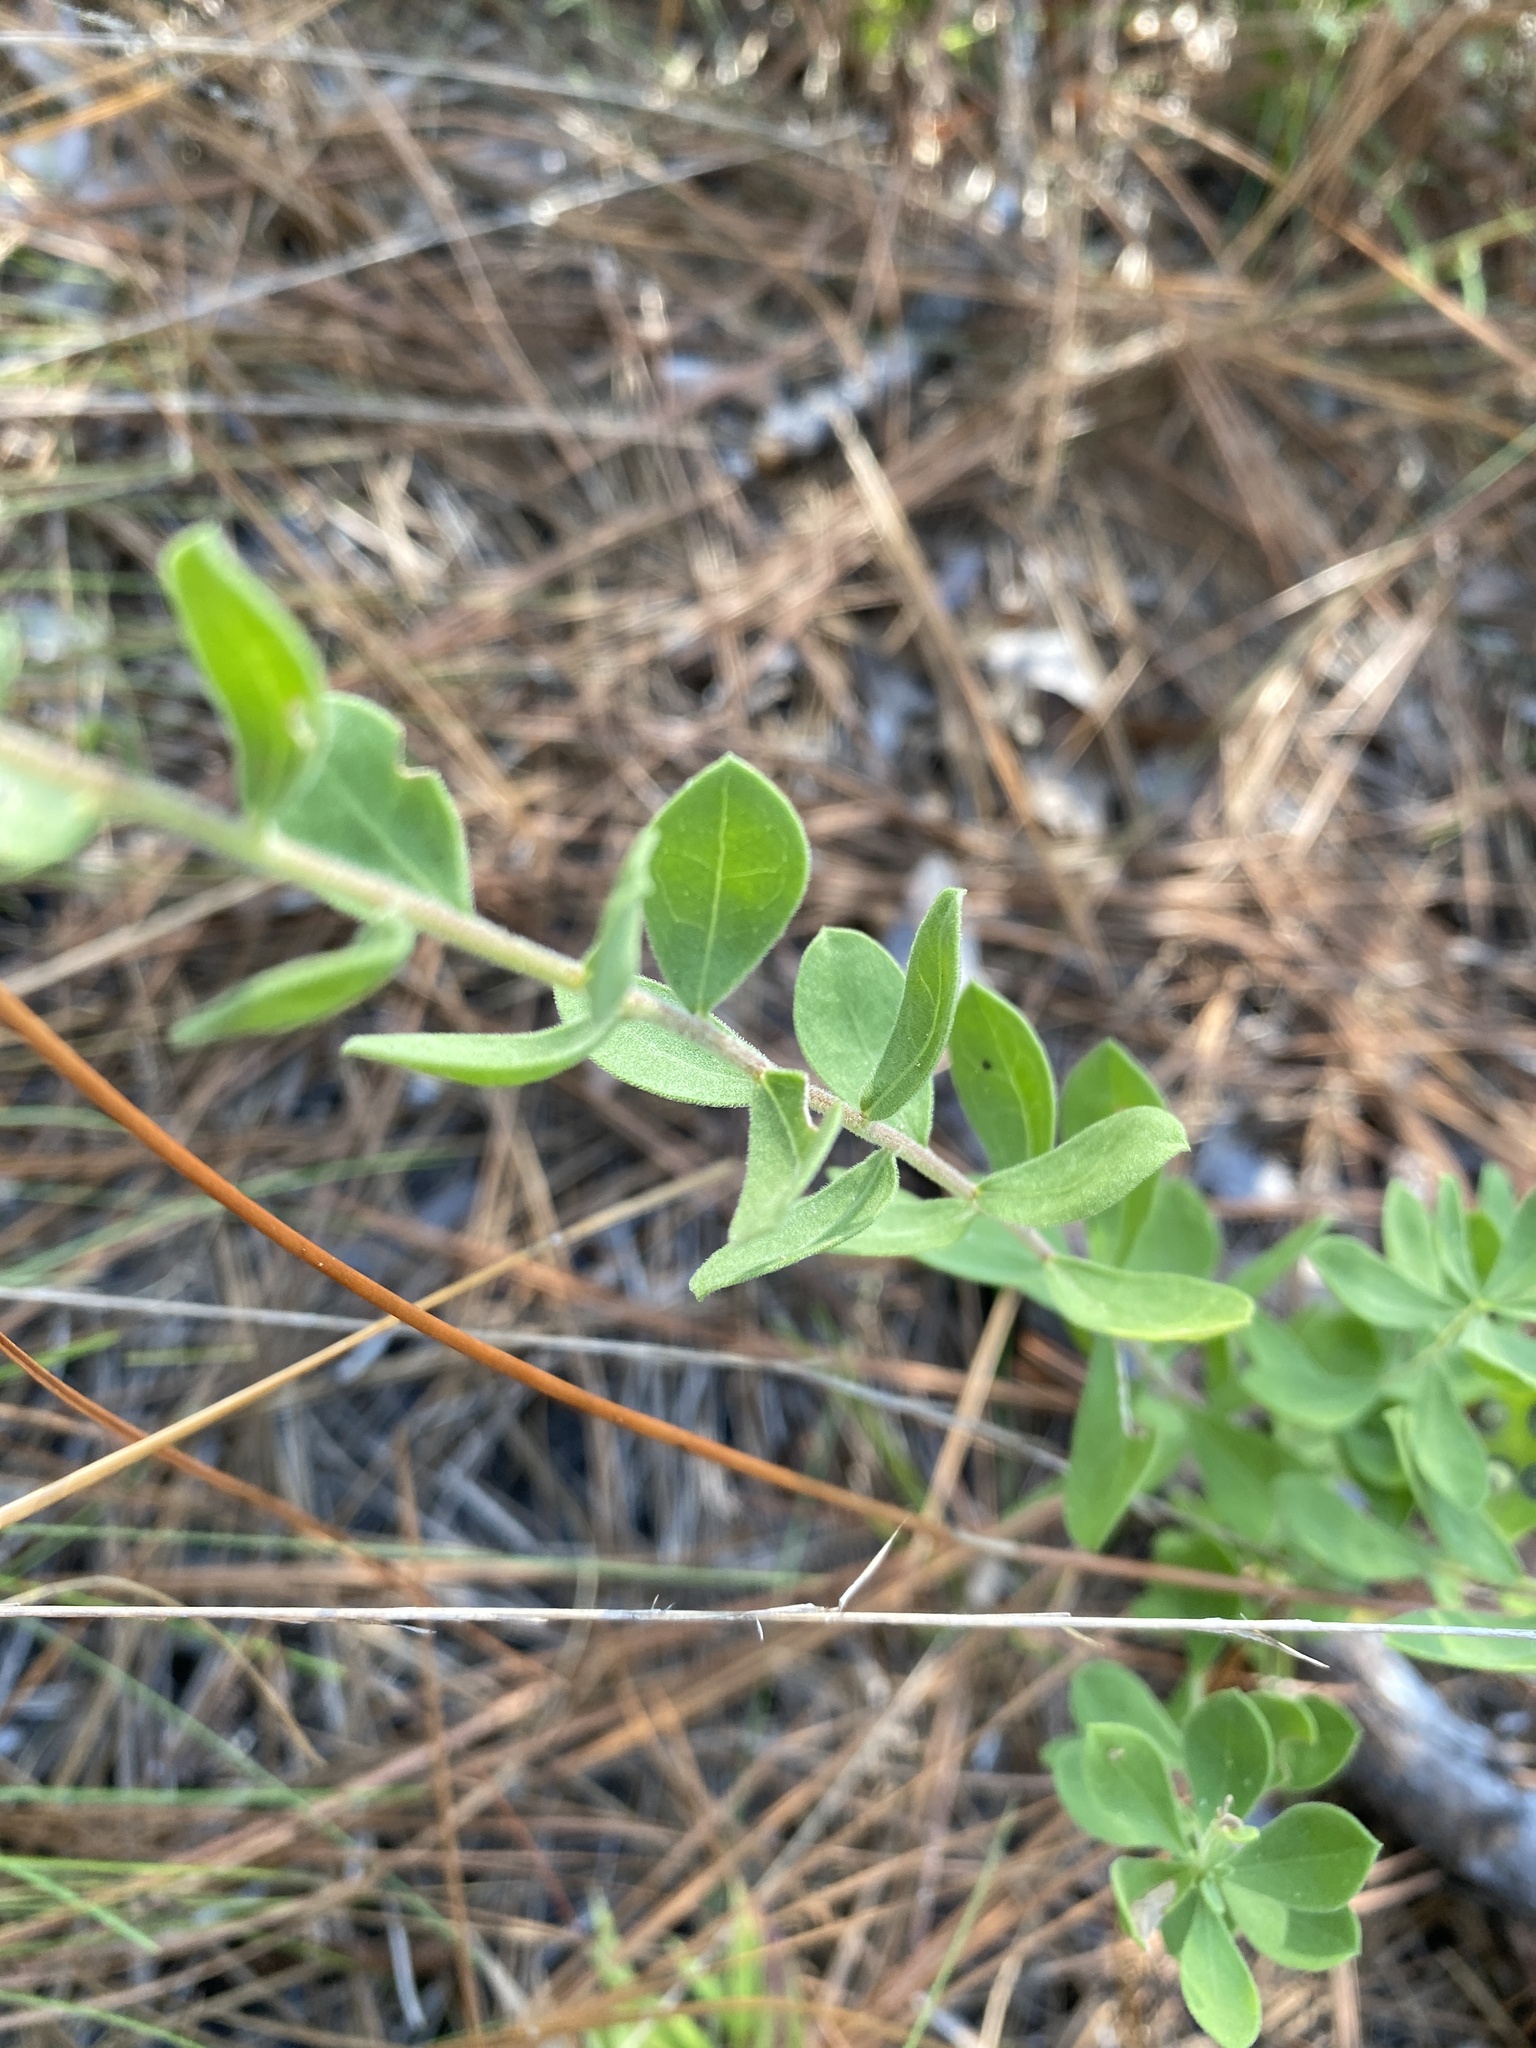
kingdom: Plantae
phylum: Tracheophyta
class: Magnoliopsida
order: Asterales
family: Asteraceae
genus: Sericocarpus
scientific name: Sericocarpus tortifolius
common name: Dixie aster
